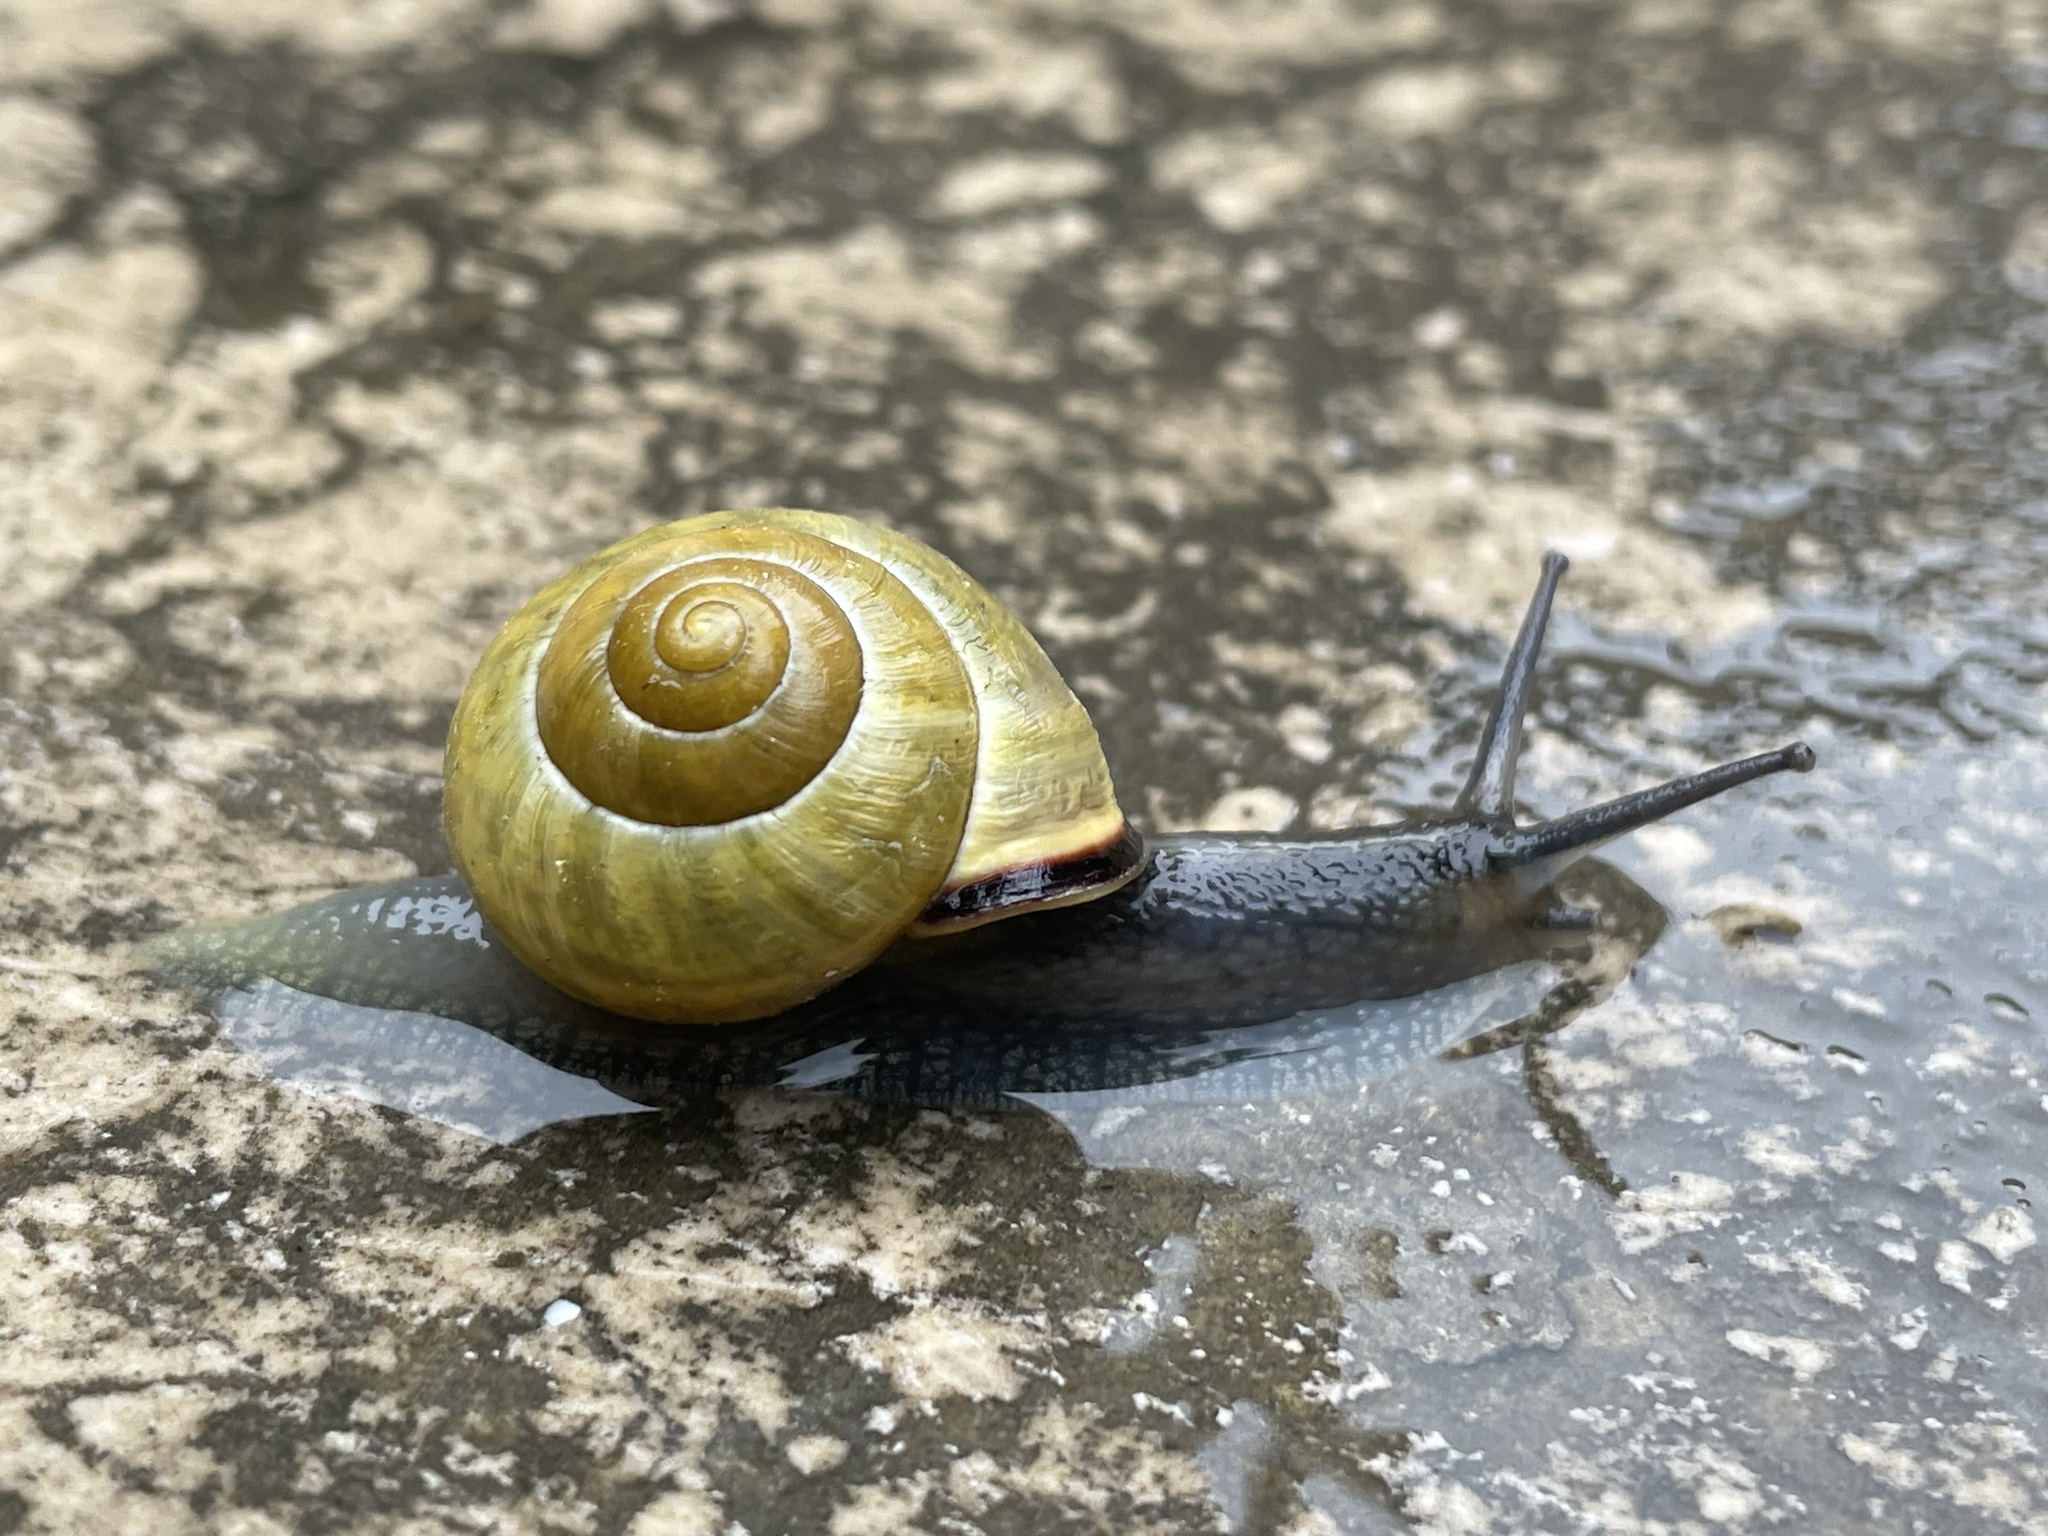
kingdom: Animalia
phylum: Mollusca
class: Gastropoda
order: Stylommatophora
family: Helicidae
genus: Cepaea
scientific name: Cepaea nemoralis
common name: Grovesnail
